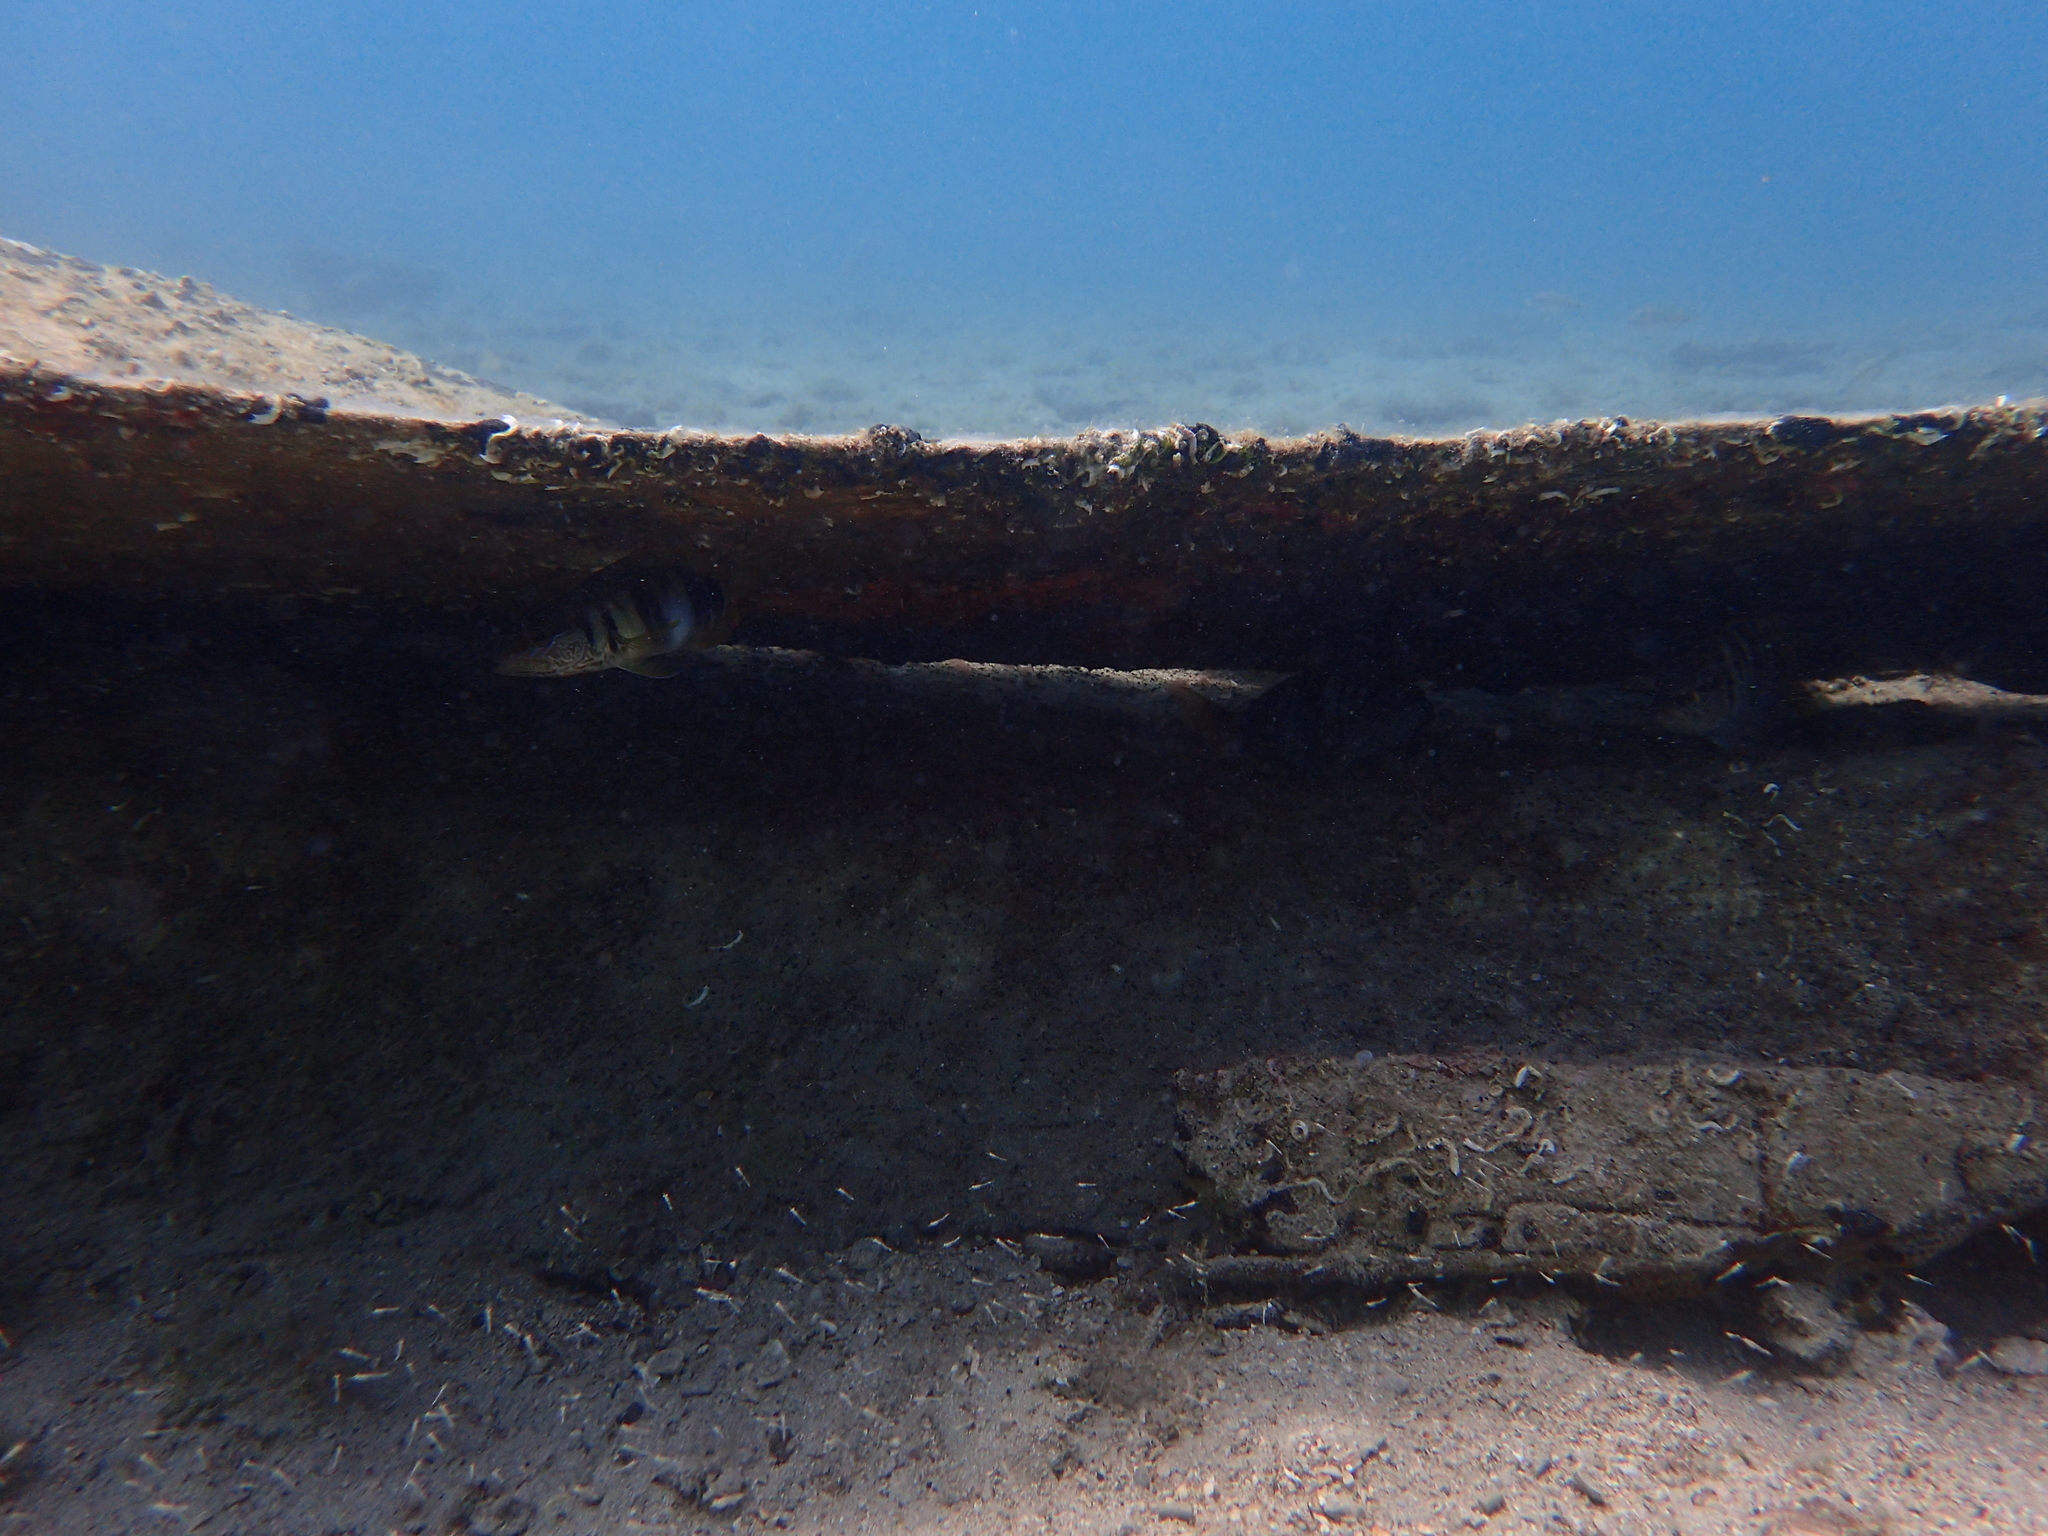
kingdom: Animalia
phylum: Chordata
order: Perciformes
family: Serranidae
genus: Serranus
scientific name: Serranus scriba
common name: Painted comber
